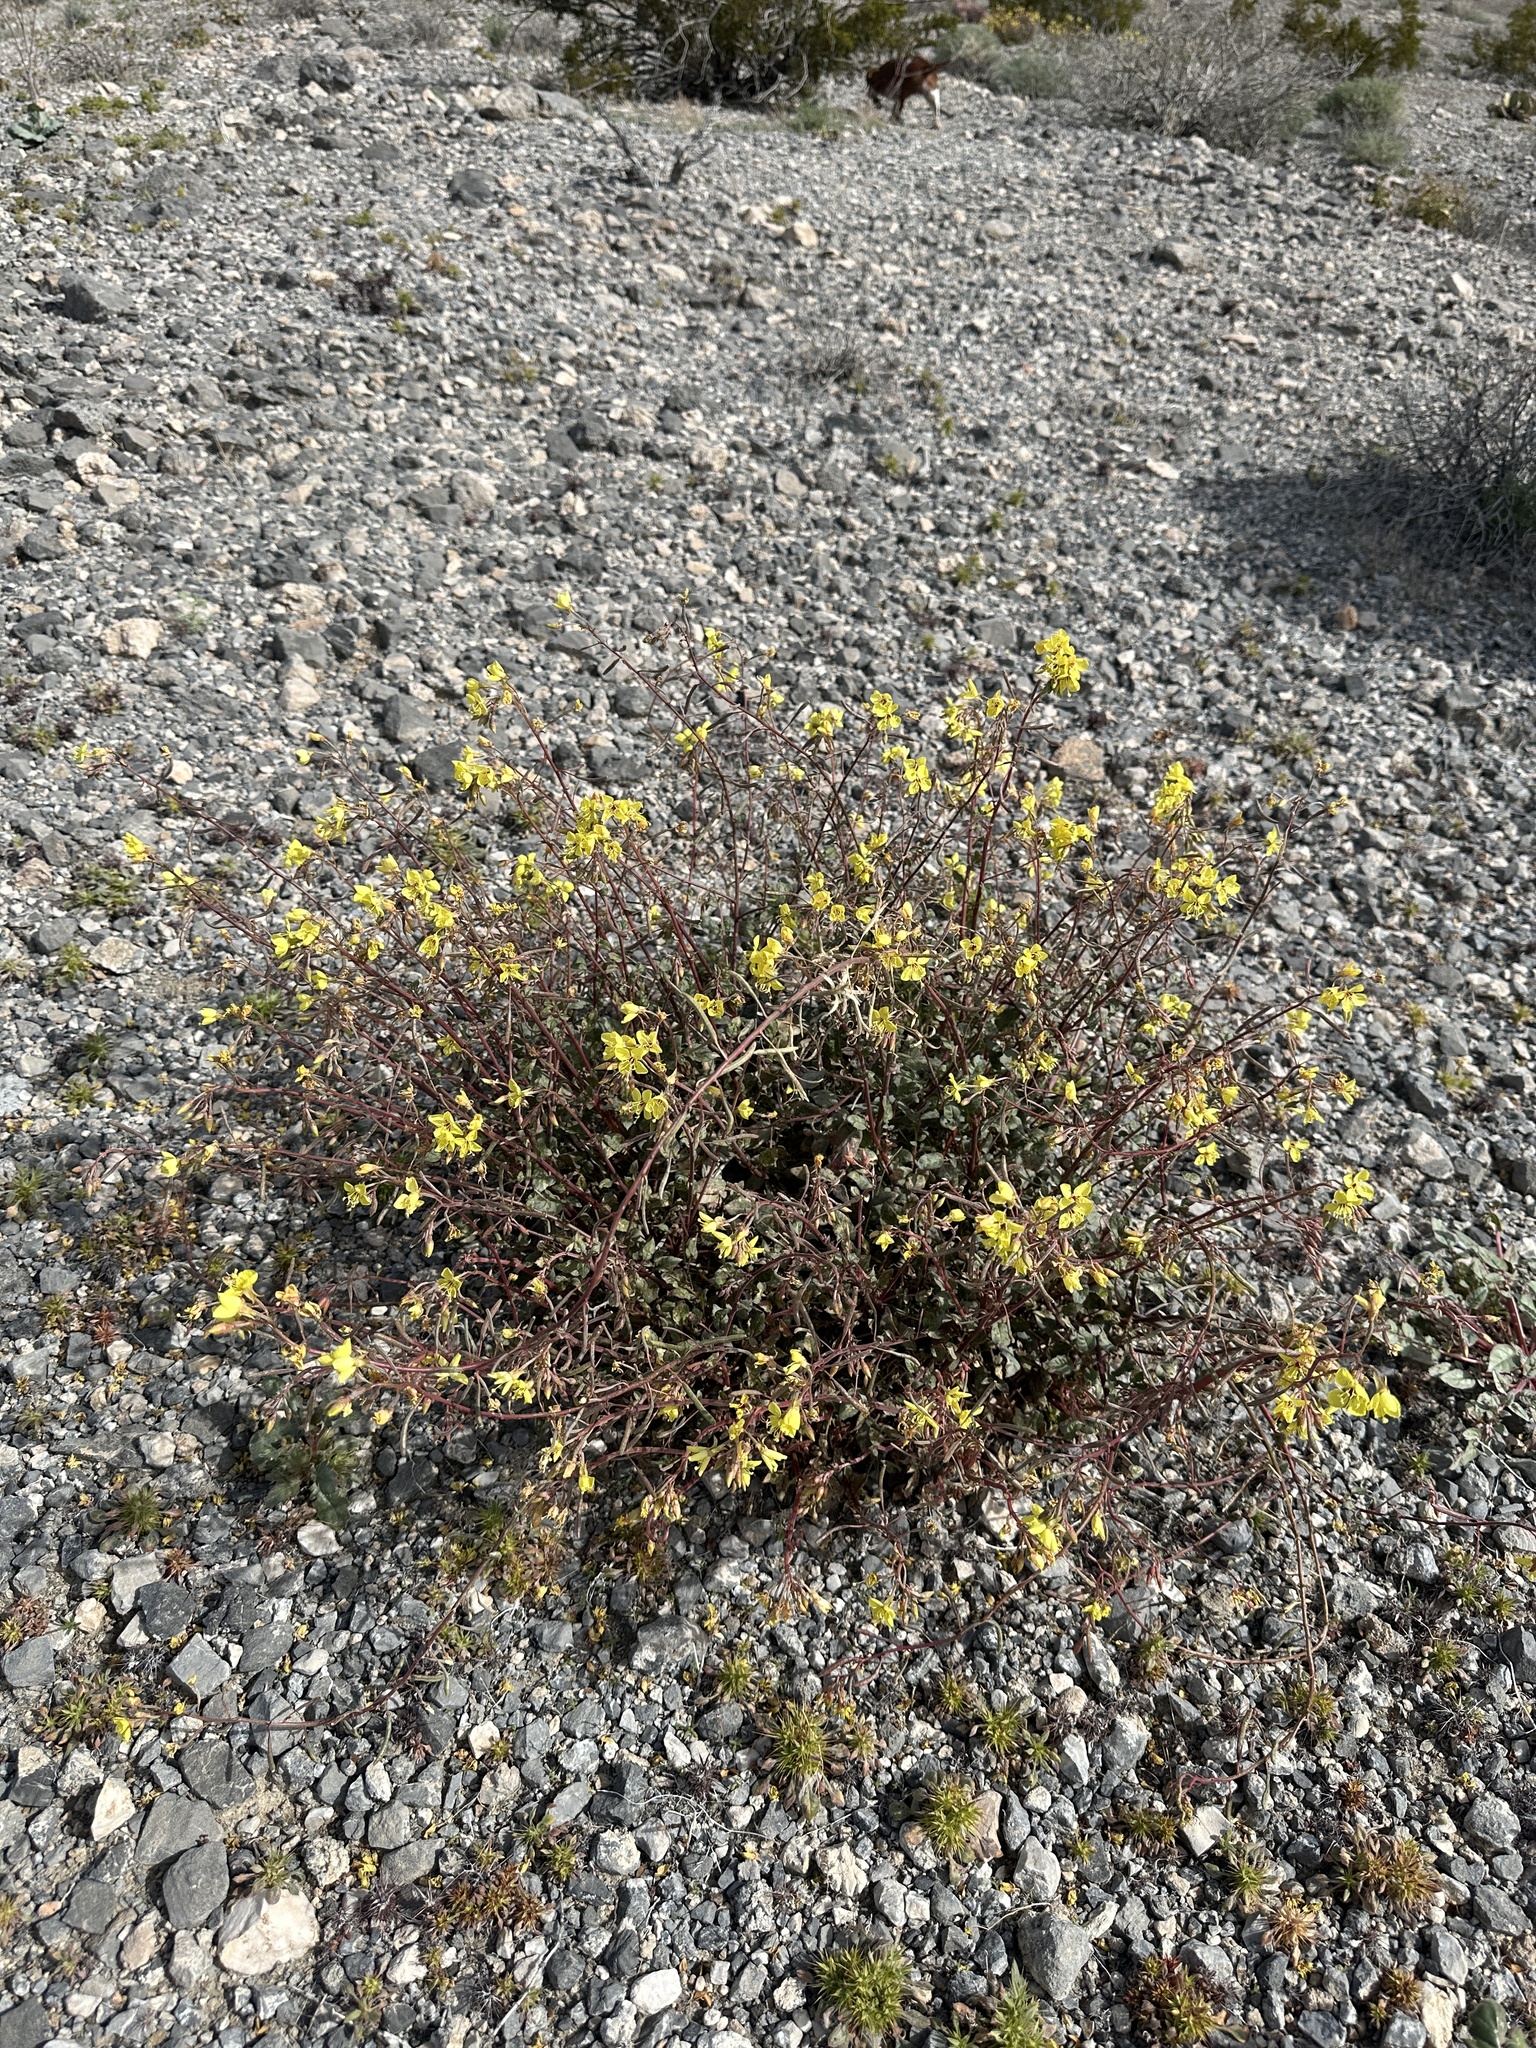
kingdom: Plantae
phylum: Tracheophyta
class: Magnoliopsida
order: Myrtales
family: Onagraceae
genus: Chylismia
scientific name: Chylismia munzii
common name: Death valley suncup
